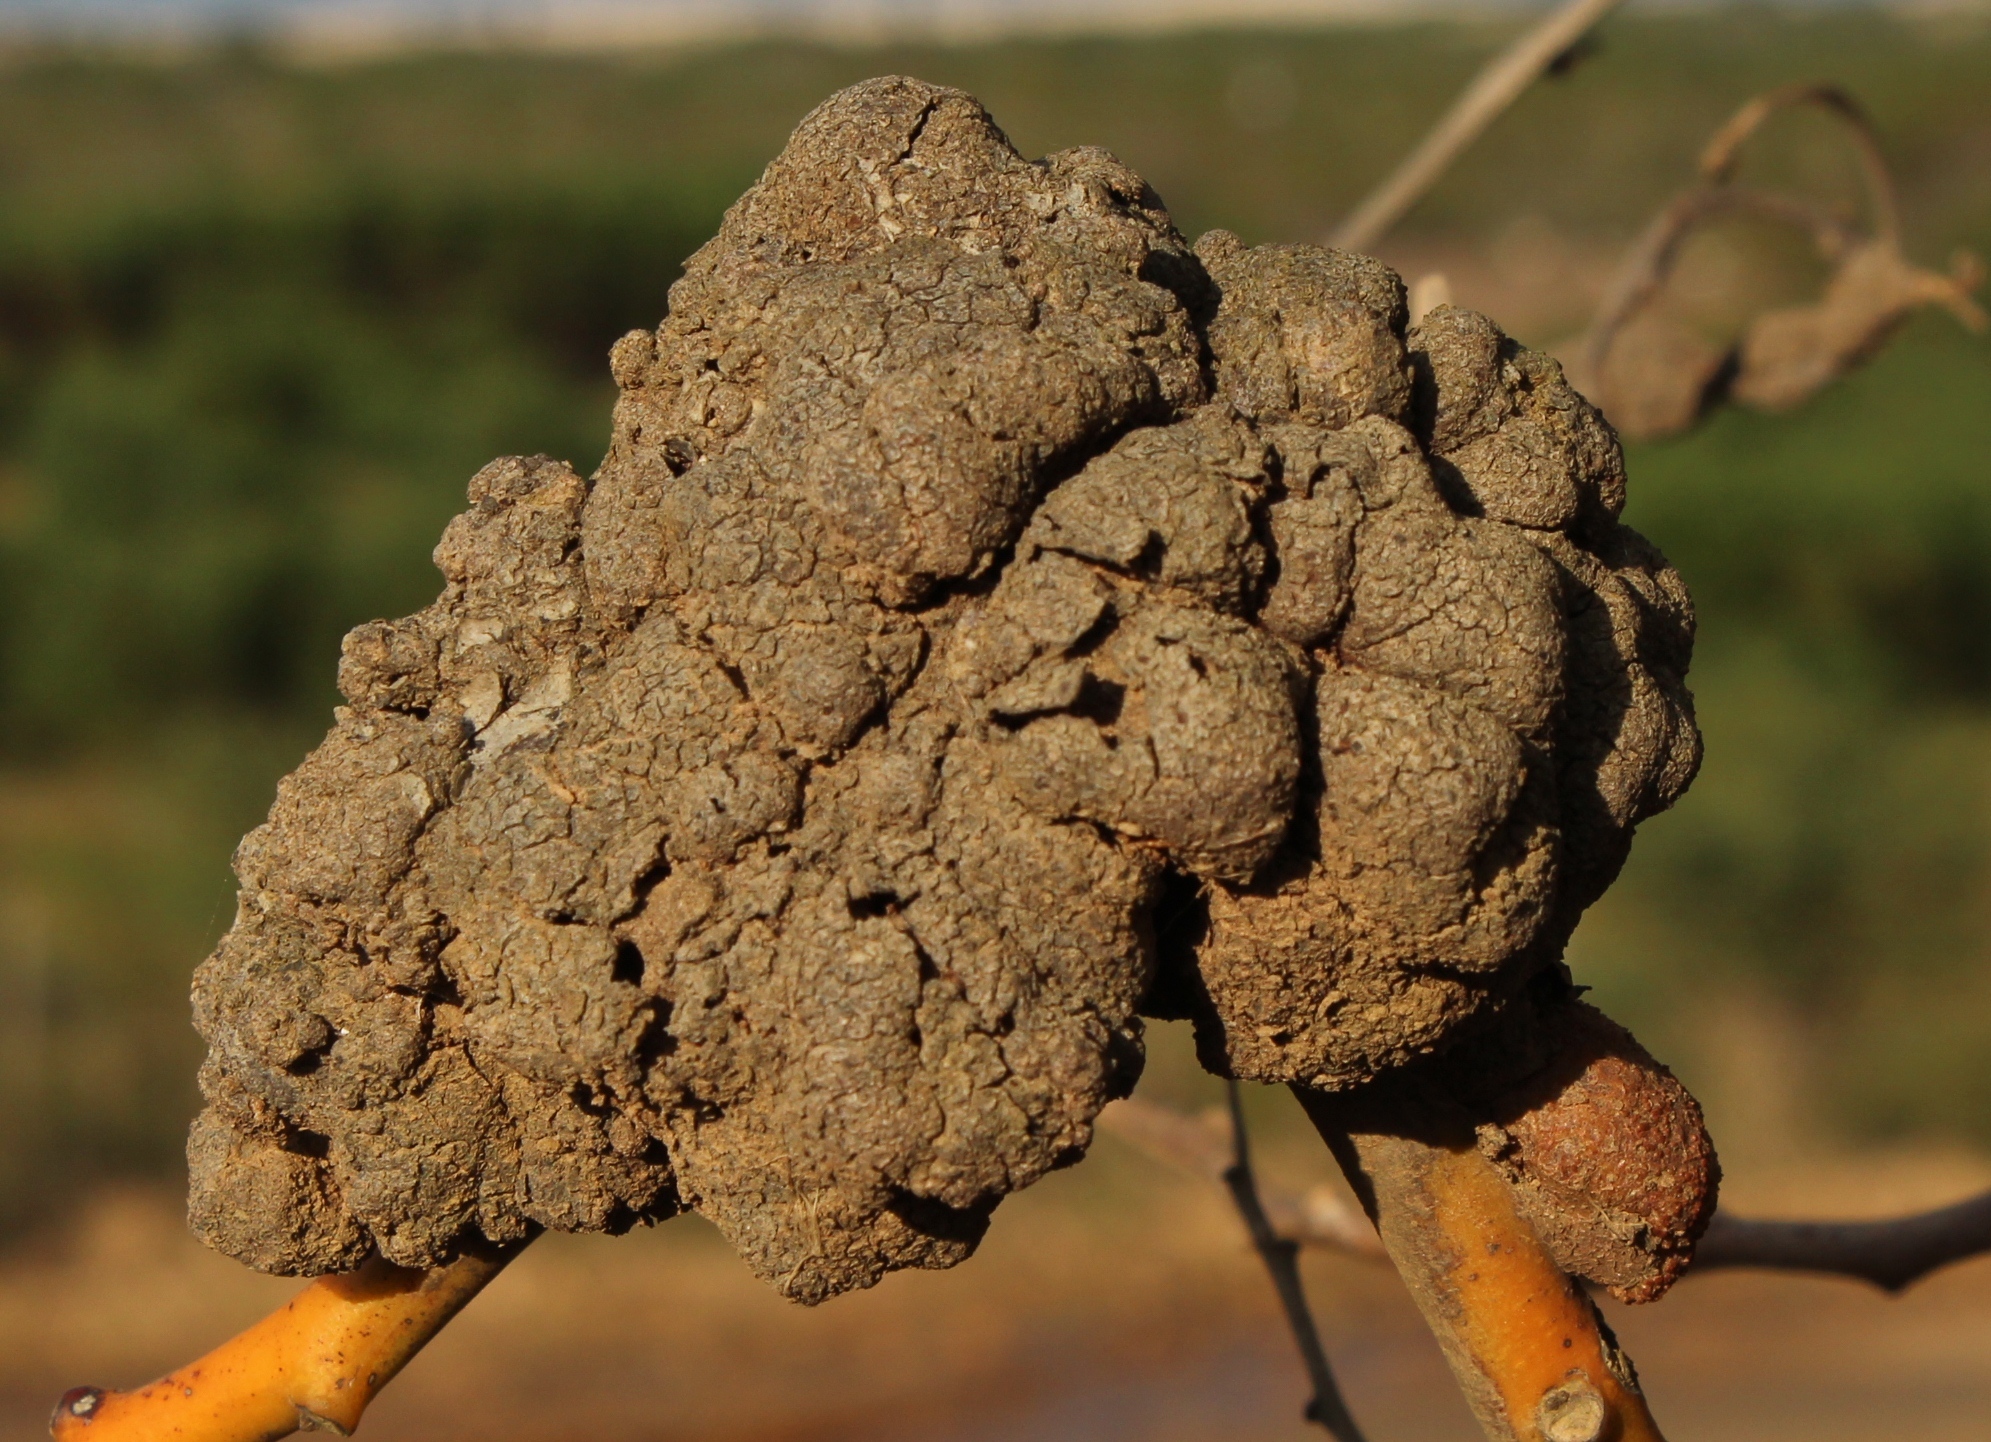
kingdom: Fungi
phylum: Basidiomycota
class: Pucciniomycetes
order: Pucciniales
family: Uromycladiaceae
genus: Uromycladium
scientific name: Uromycladium morrisii
